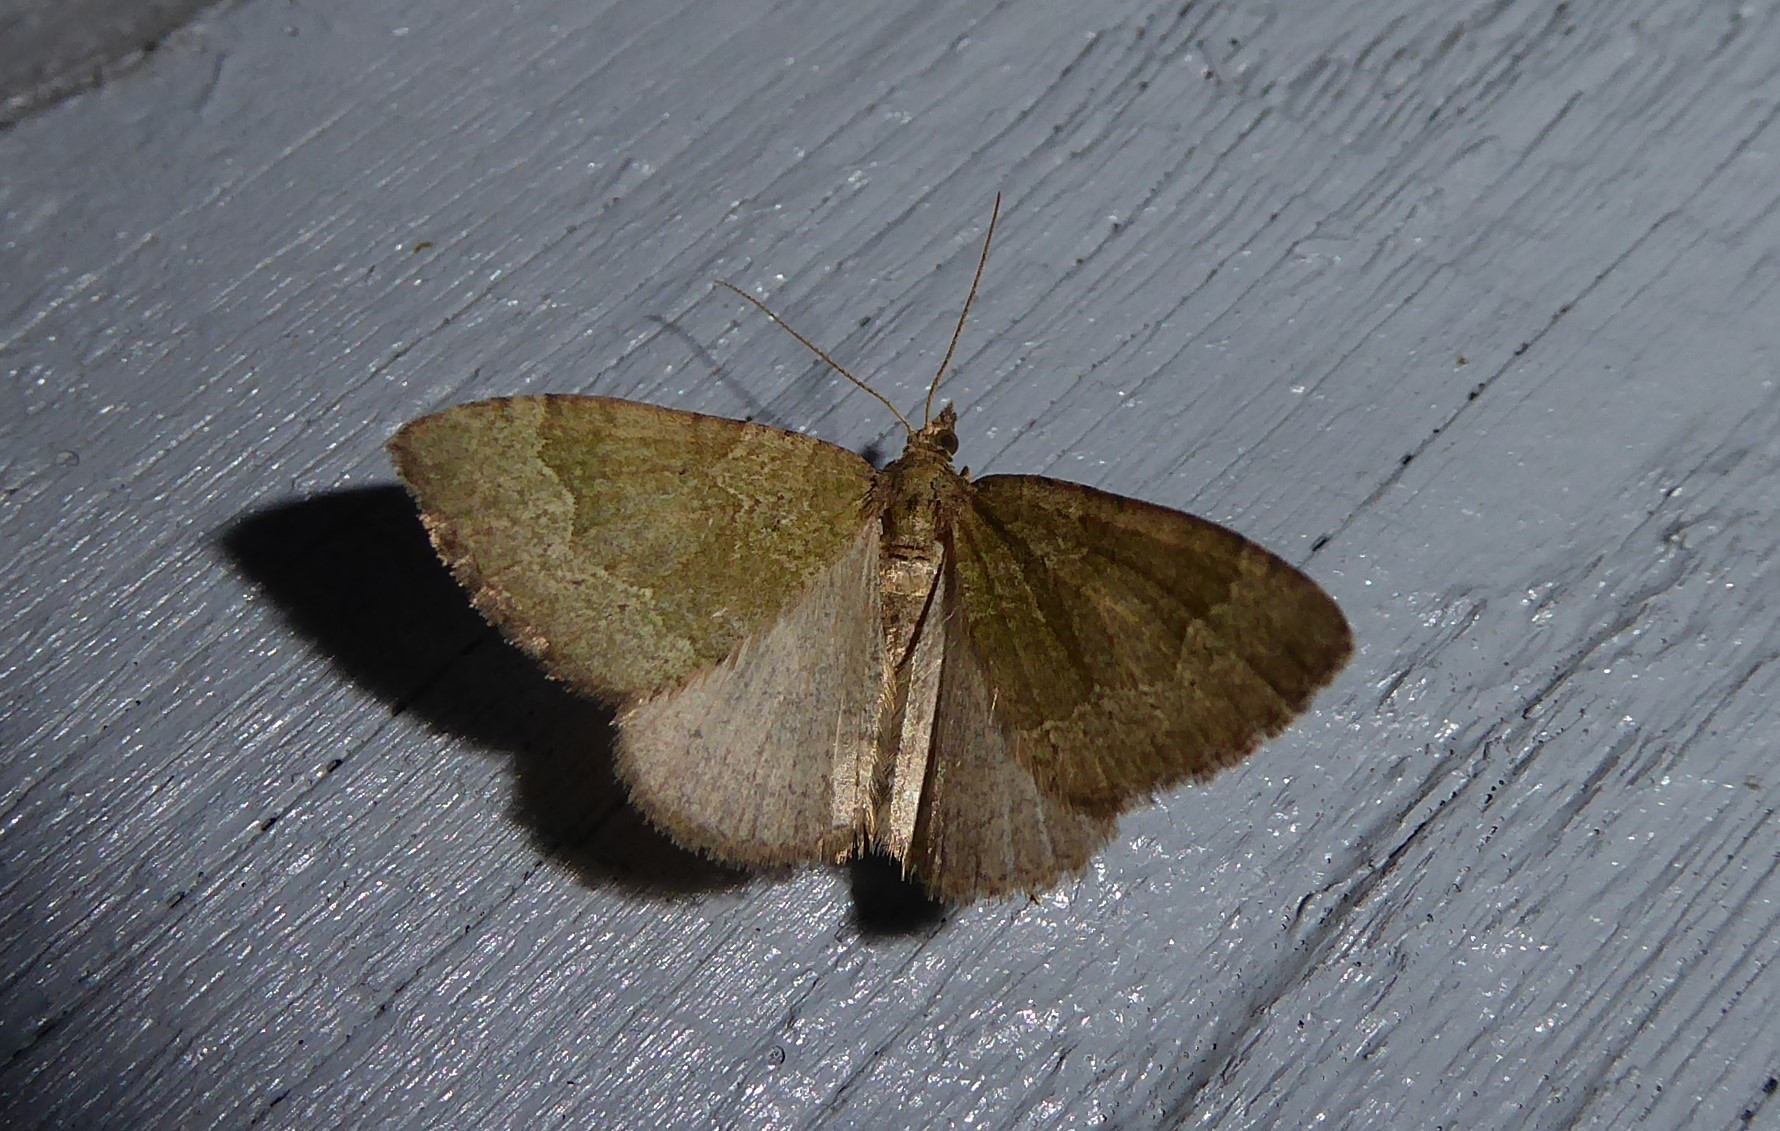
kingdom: Animalia
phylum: Arthropoda
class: Insecta
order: Lepidoptera
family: Geometridae
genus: Epyaxa
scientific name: Epyaxa rosearia
